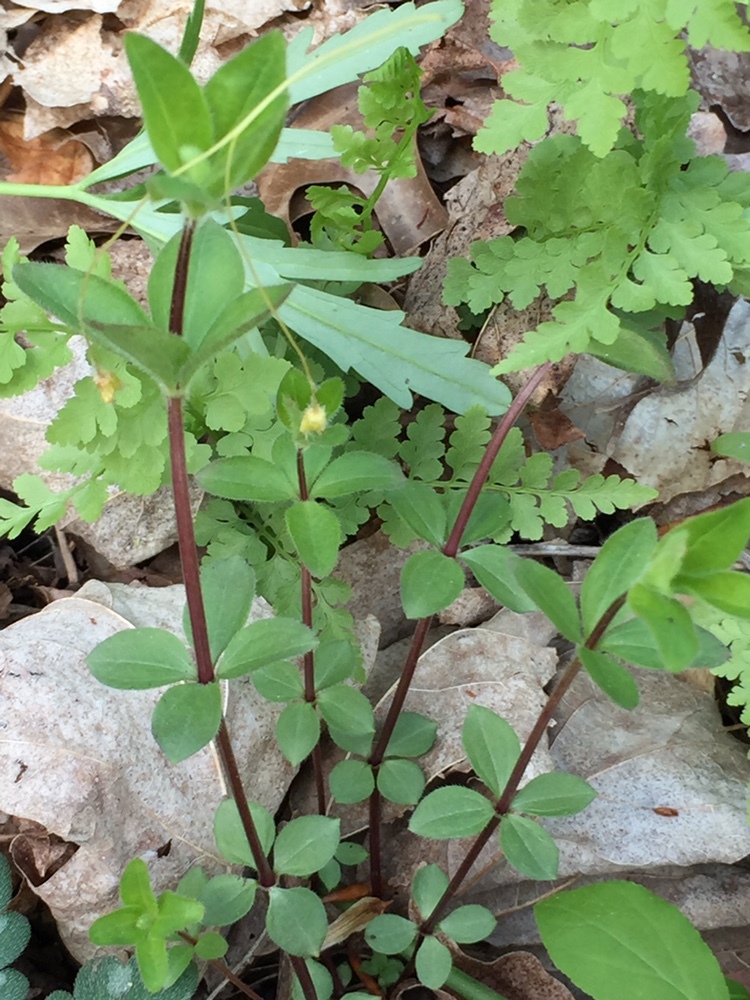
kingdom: Plantae
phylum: Tracheophyta
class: Magnoliopsida
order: Gentianales
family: Rubiaceae
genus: Galium
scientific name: Galium circaezans
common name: Forest bedstraw
